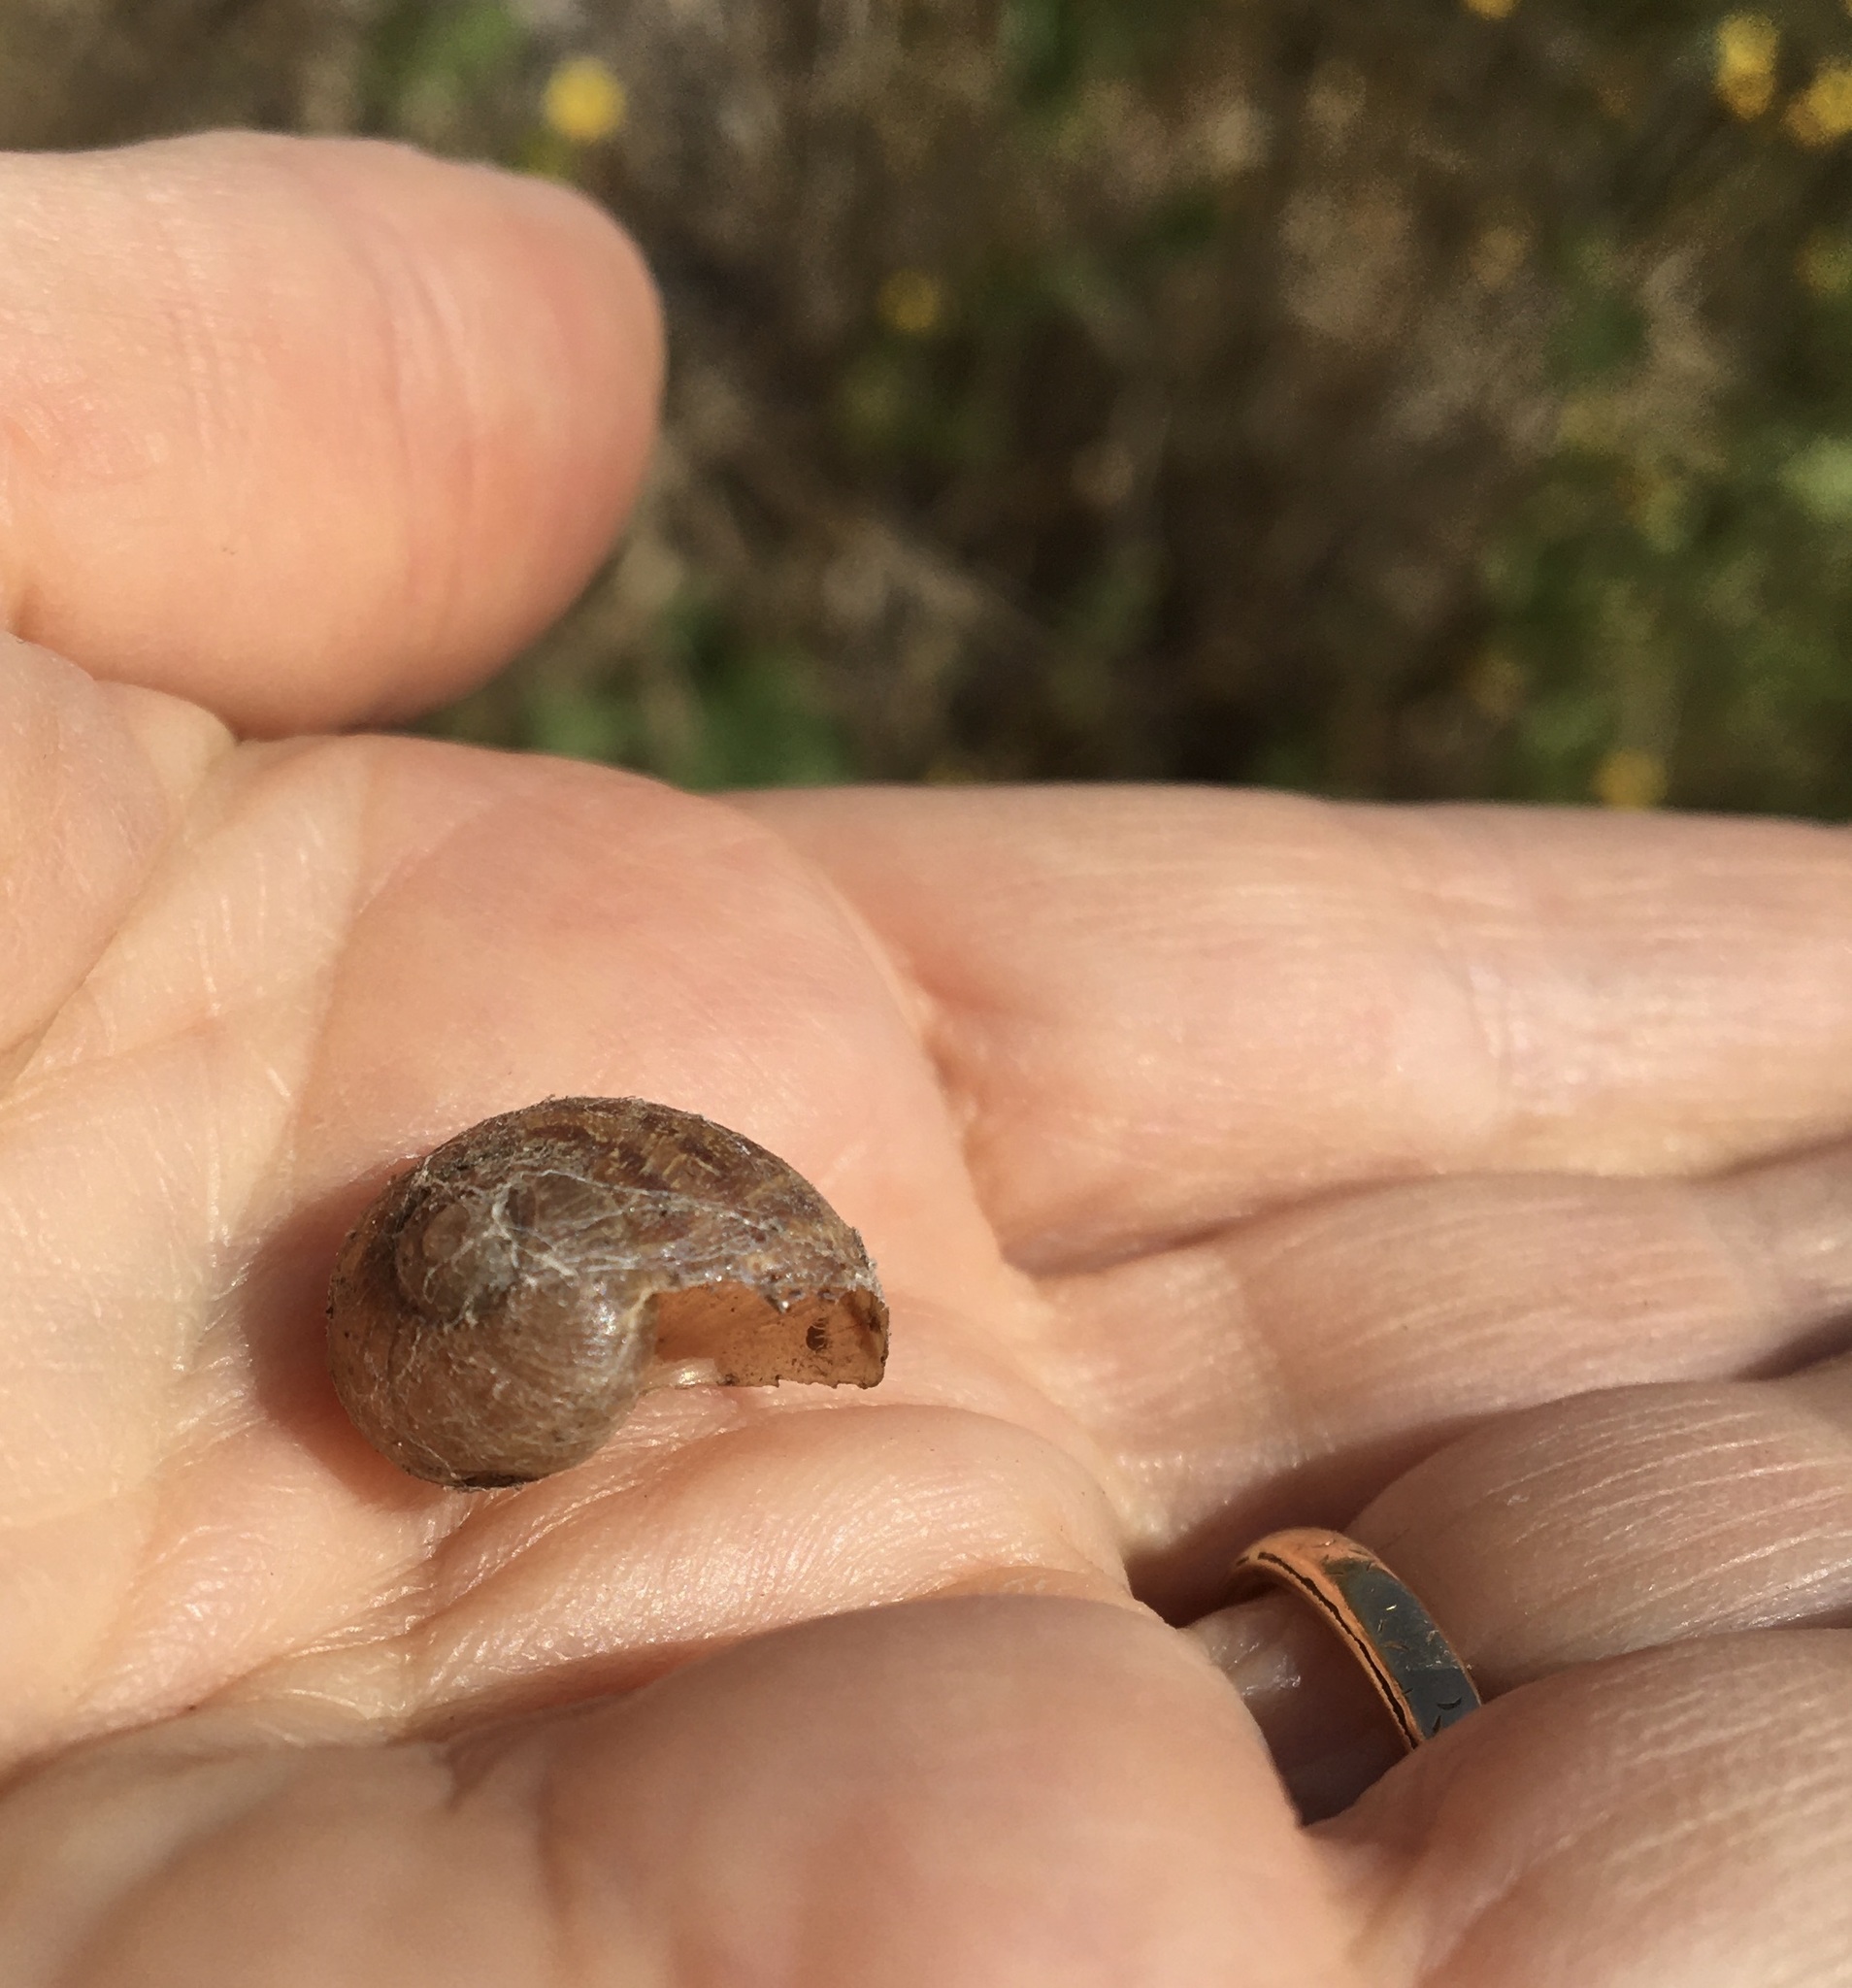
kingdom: Animalia
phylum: Mollusca
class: Gastropoda
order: Stylommatophora
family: Helicidae
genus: Cornu
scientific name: Cornu aspersum
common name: Brown garden snail
